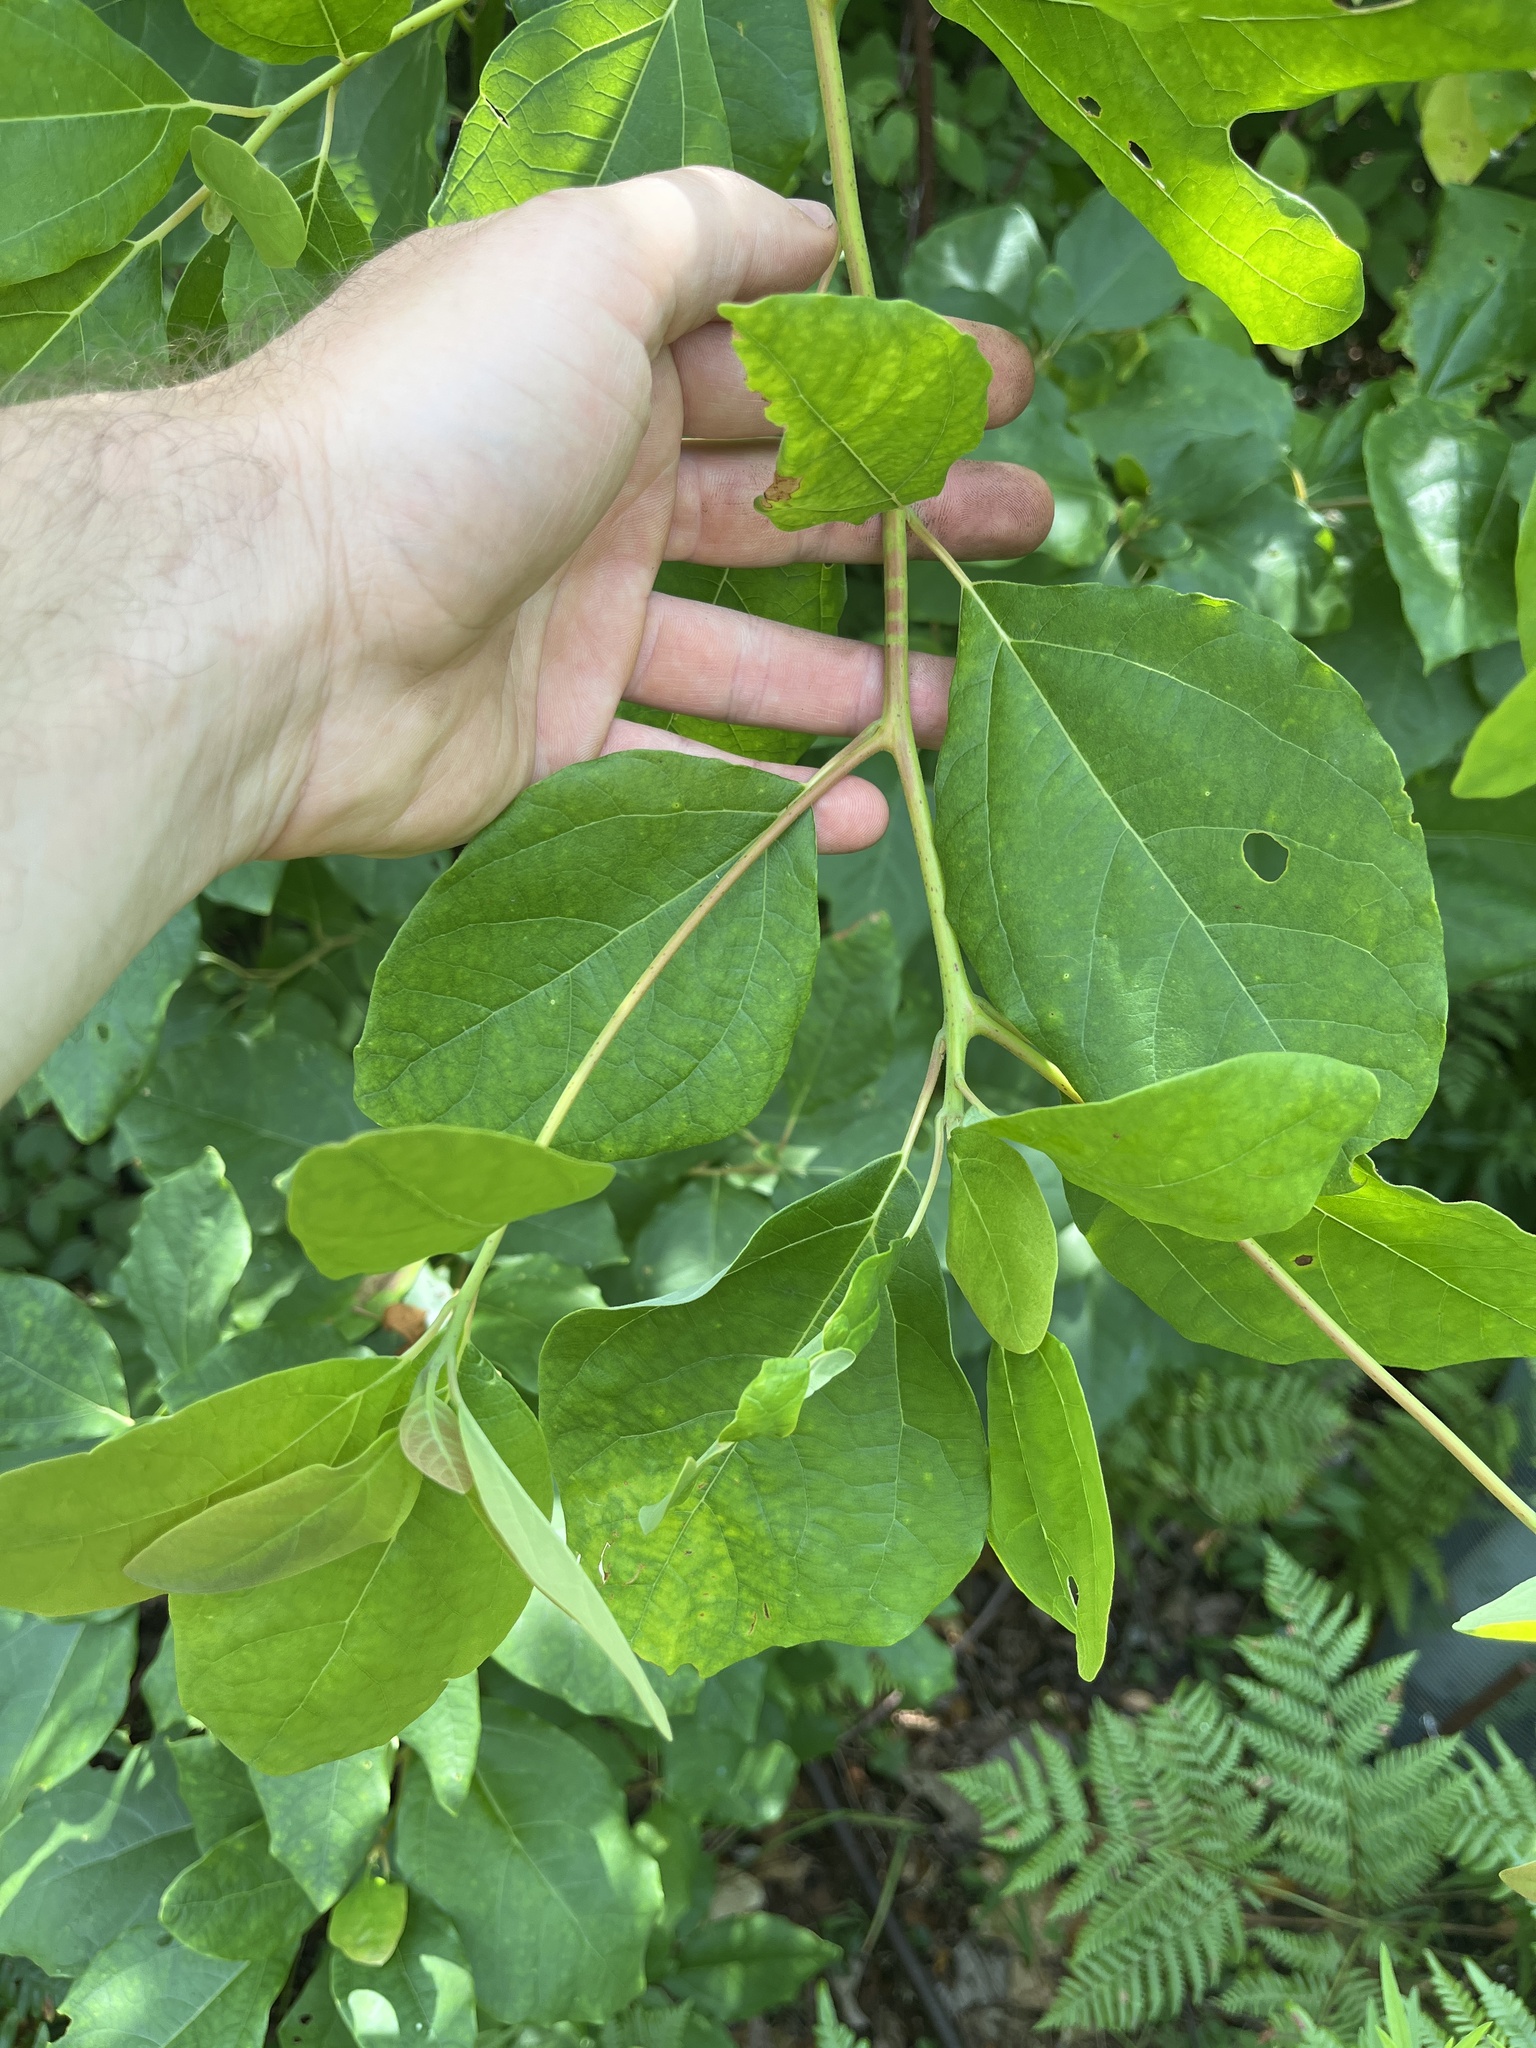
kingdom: Plantae
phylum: Tracheophyta
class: Magnoliopsida
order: Laurales
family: Lauraceae
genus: Sassafras
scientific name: Sassafras albidum
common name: Sassafras
